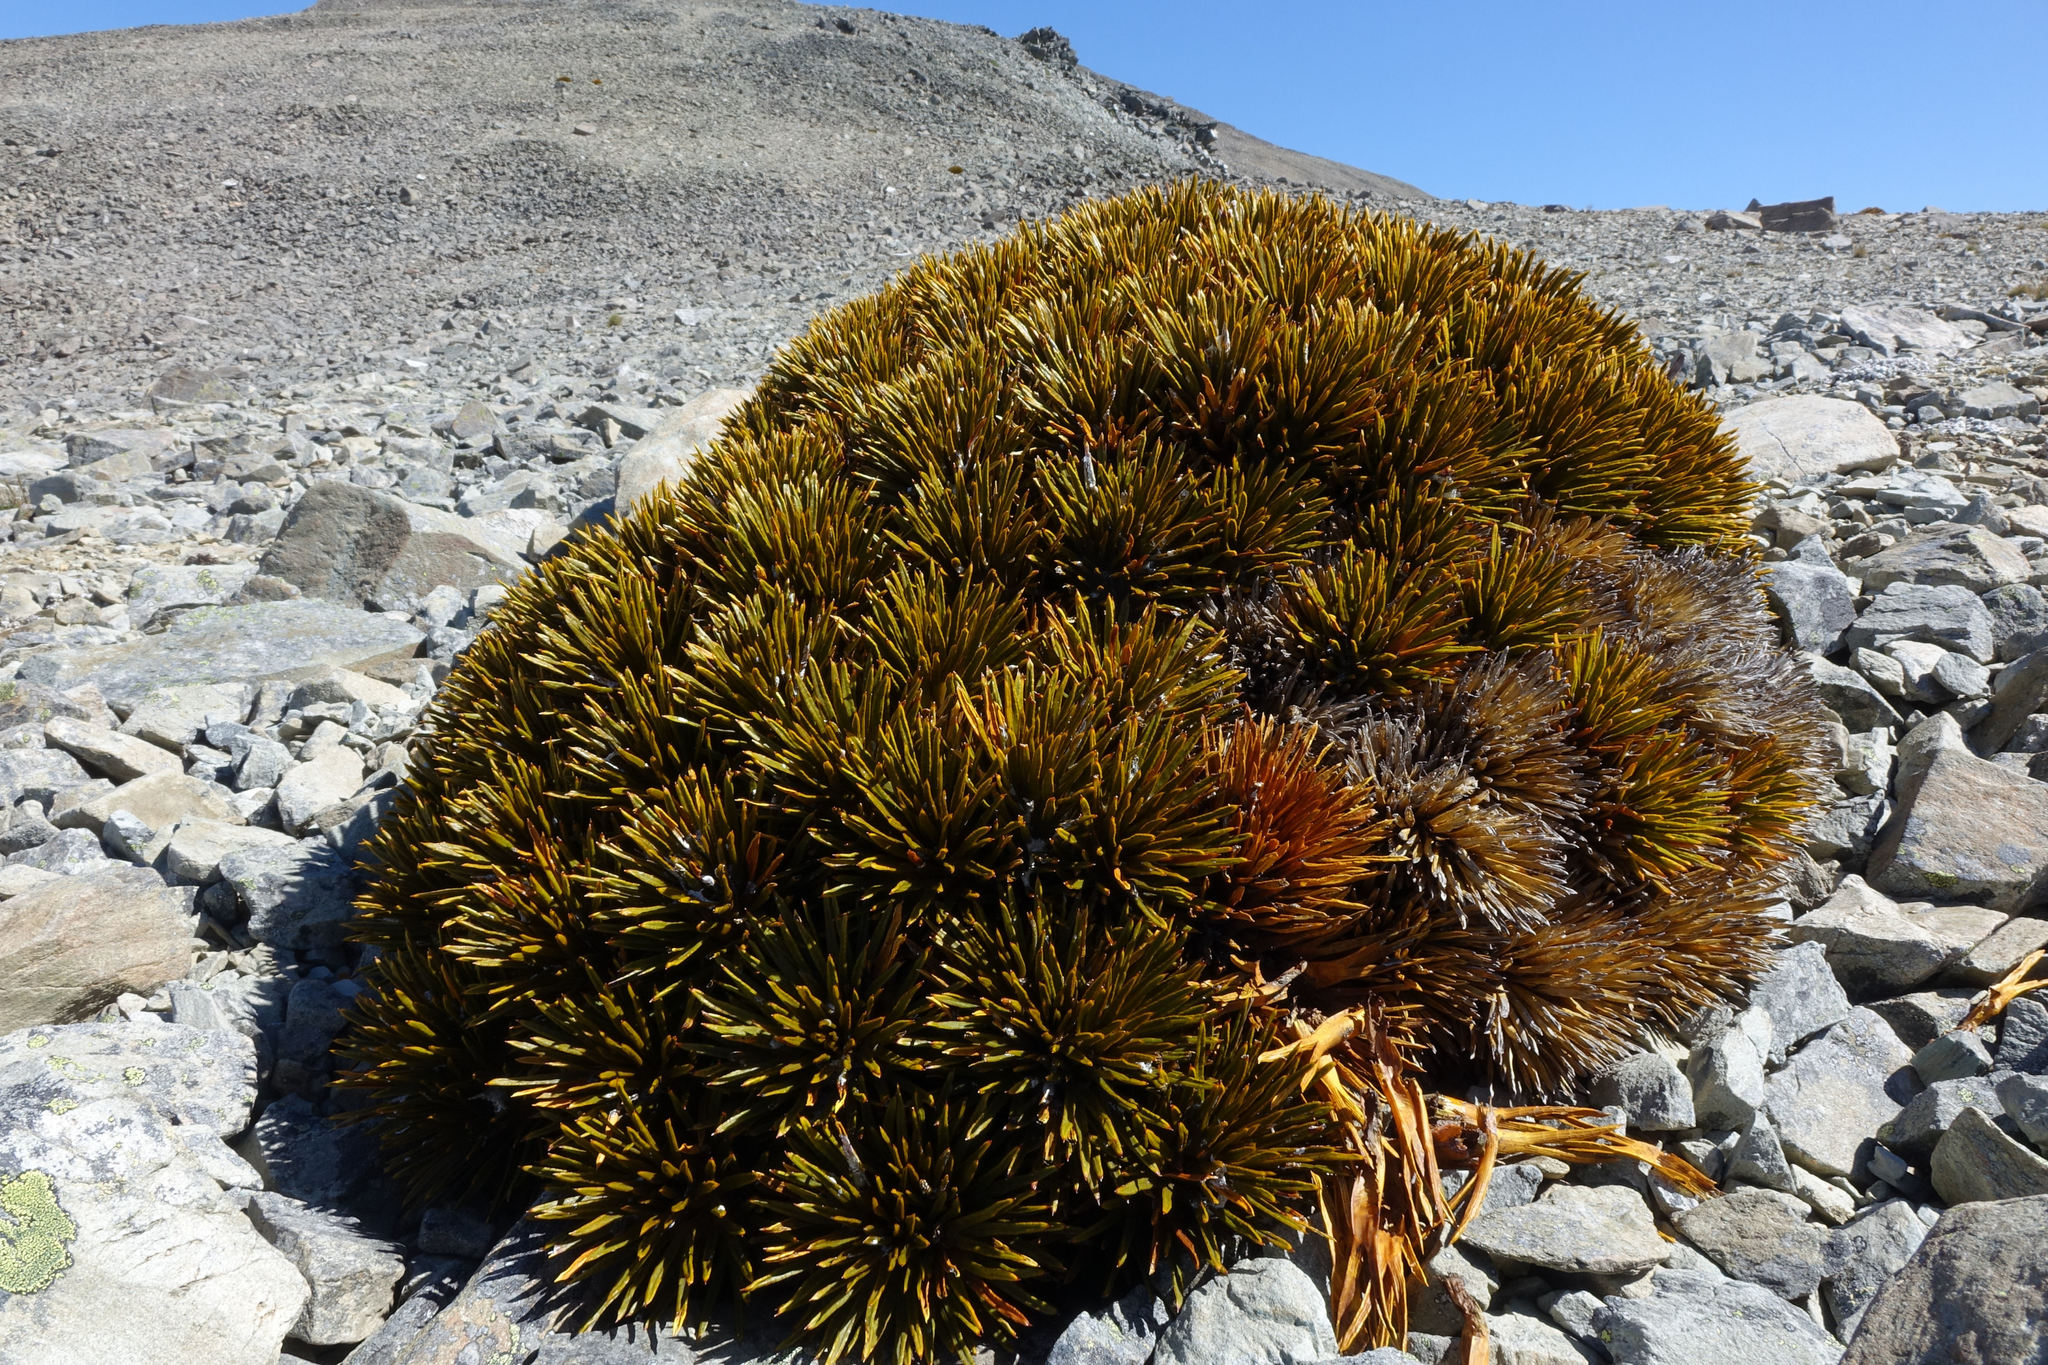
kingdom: Plantae
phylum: Tracheophyta
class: Magnoliopsida
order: Apiales
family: Apiaceae
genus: Aciphylla
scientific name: Aciphylla dobsonii
